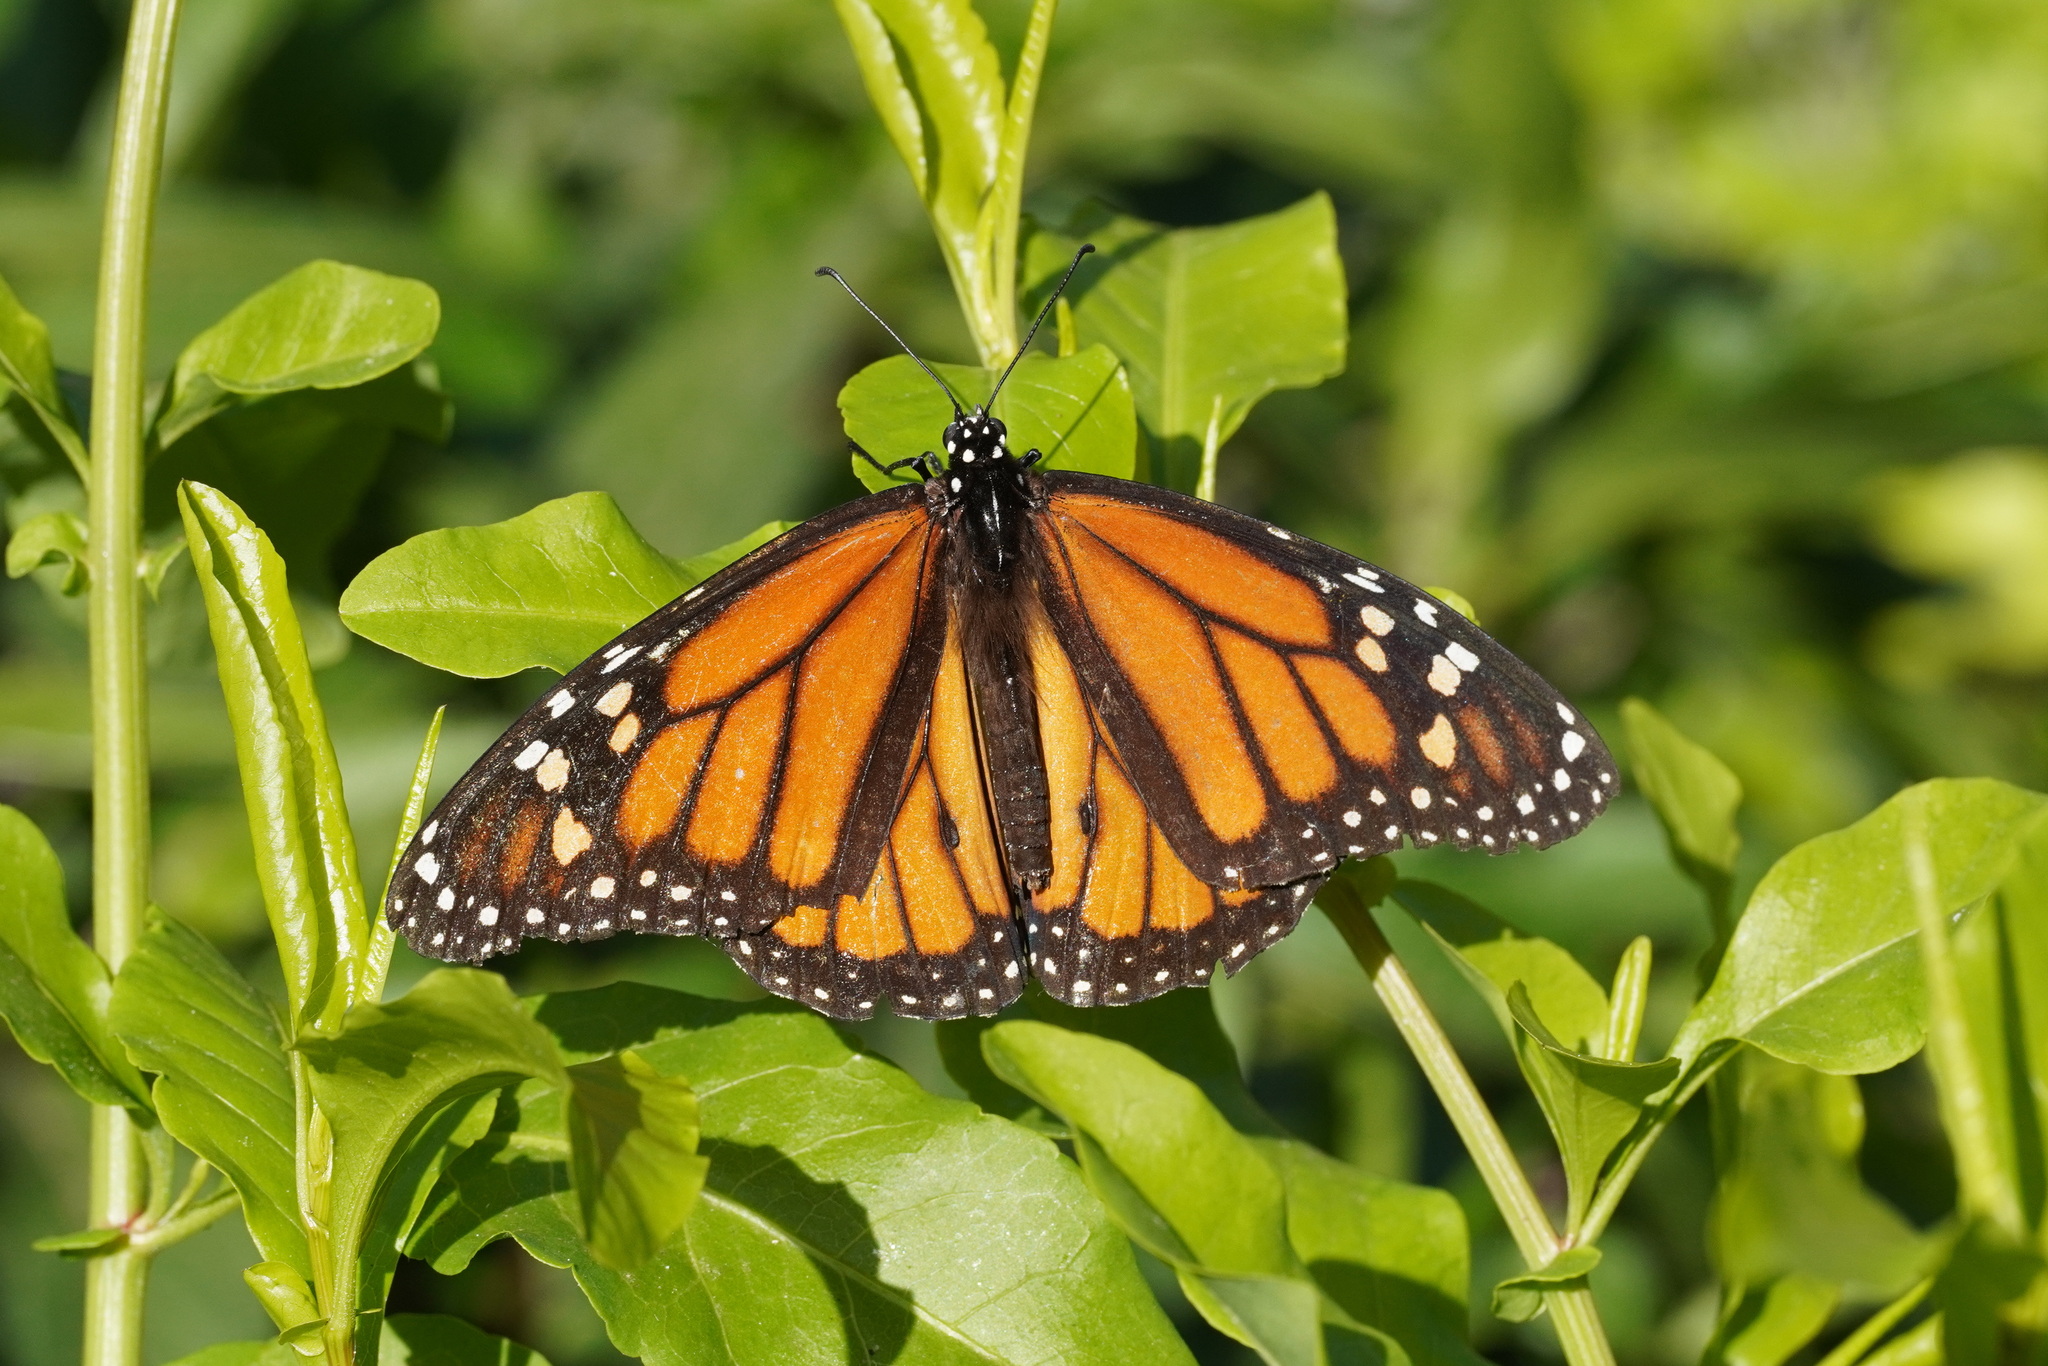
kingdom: Animalia
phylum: Arthropoda
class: Insecta
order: Lepidoptera
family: Nymphalidae
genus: Danaus
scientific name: Danaus plexippus
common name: Monarch
